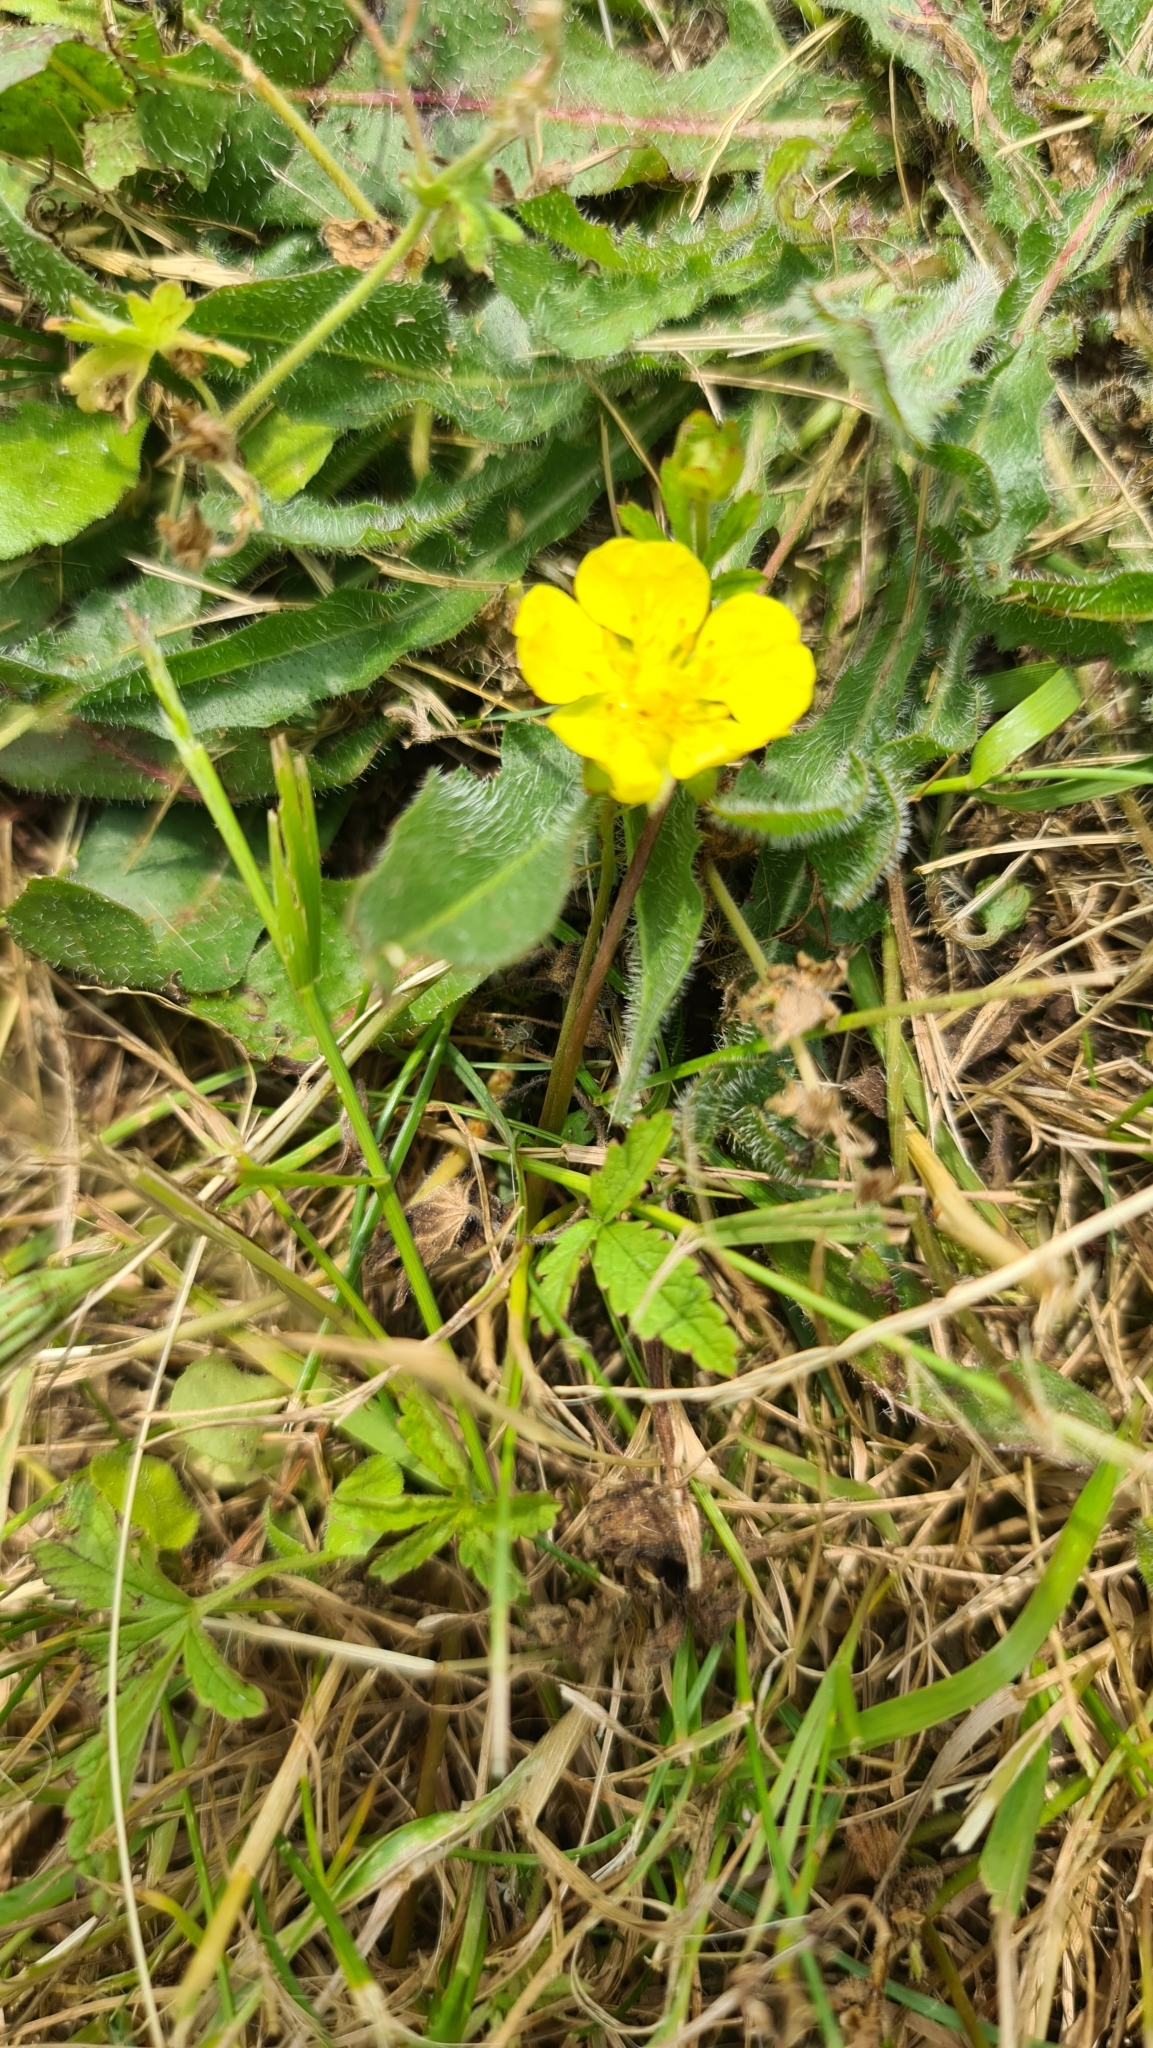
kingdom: Plantae
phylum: Tracheophyta
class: Magnoliopsida
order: Rosales
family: Rosaceae
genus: Potentilla
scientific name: Potentilla reptans
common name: Creeping cinquefoil
